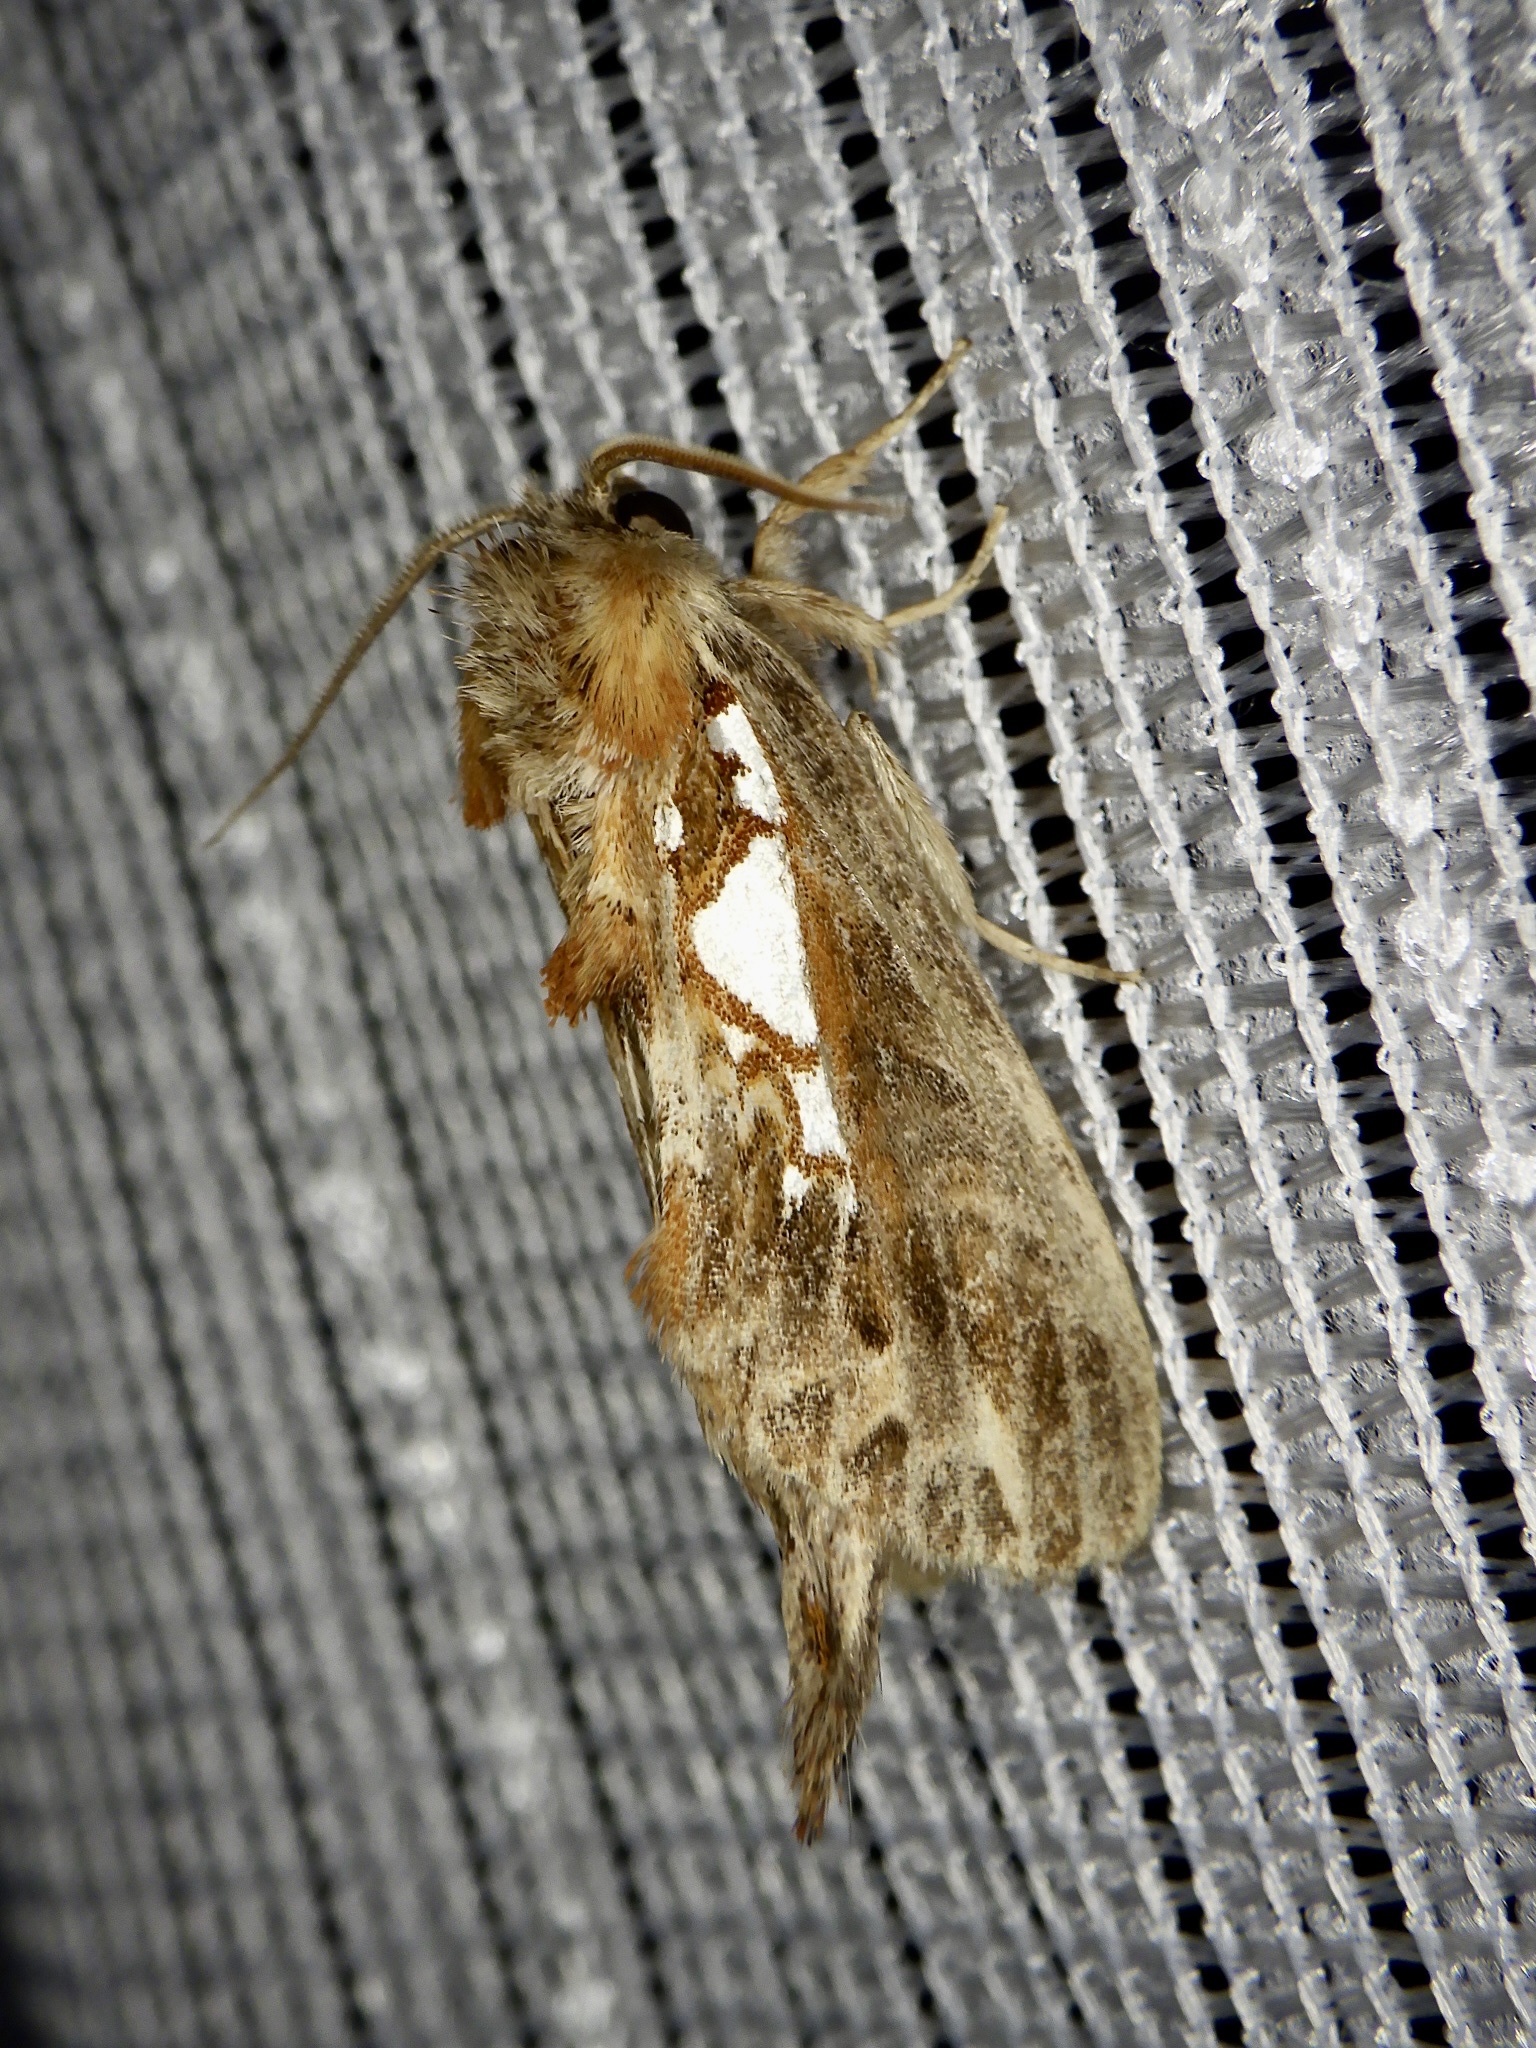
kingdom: Animalia
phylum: Arthropoda
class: Insecta
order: Lepidoptera
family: Notodontidae
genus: Spatalia
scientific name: Spatalia doerriesi
